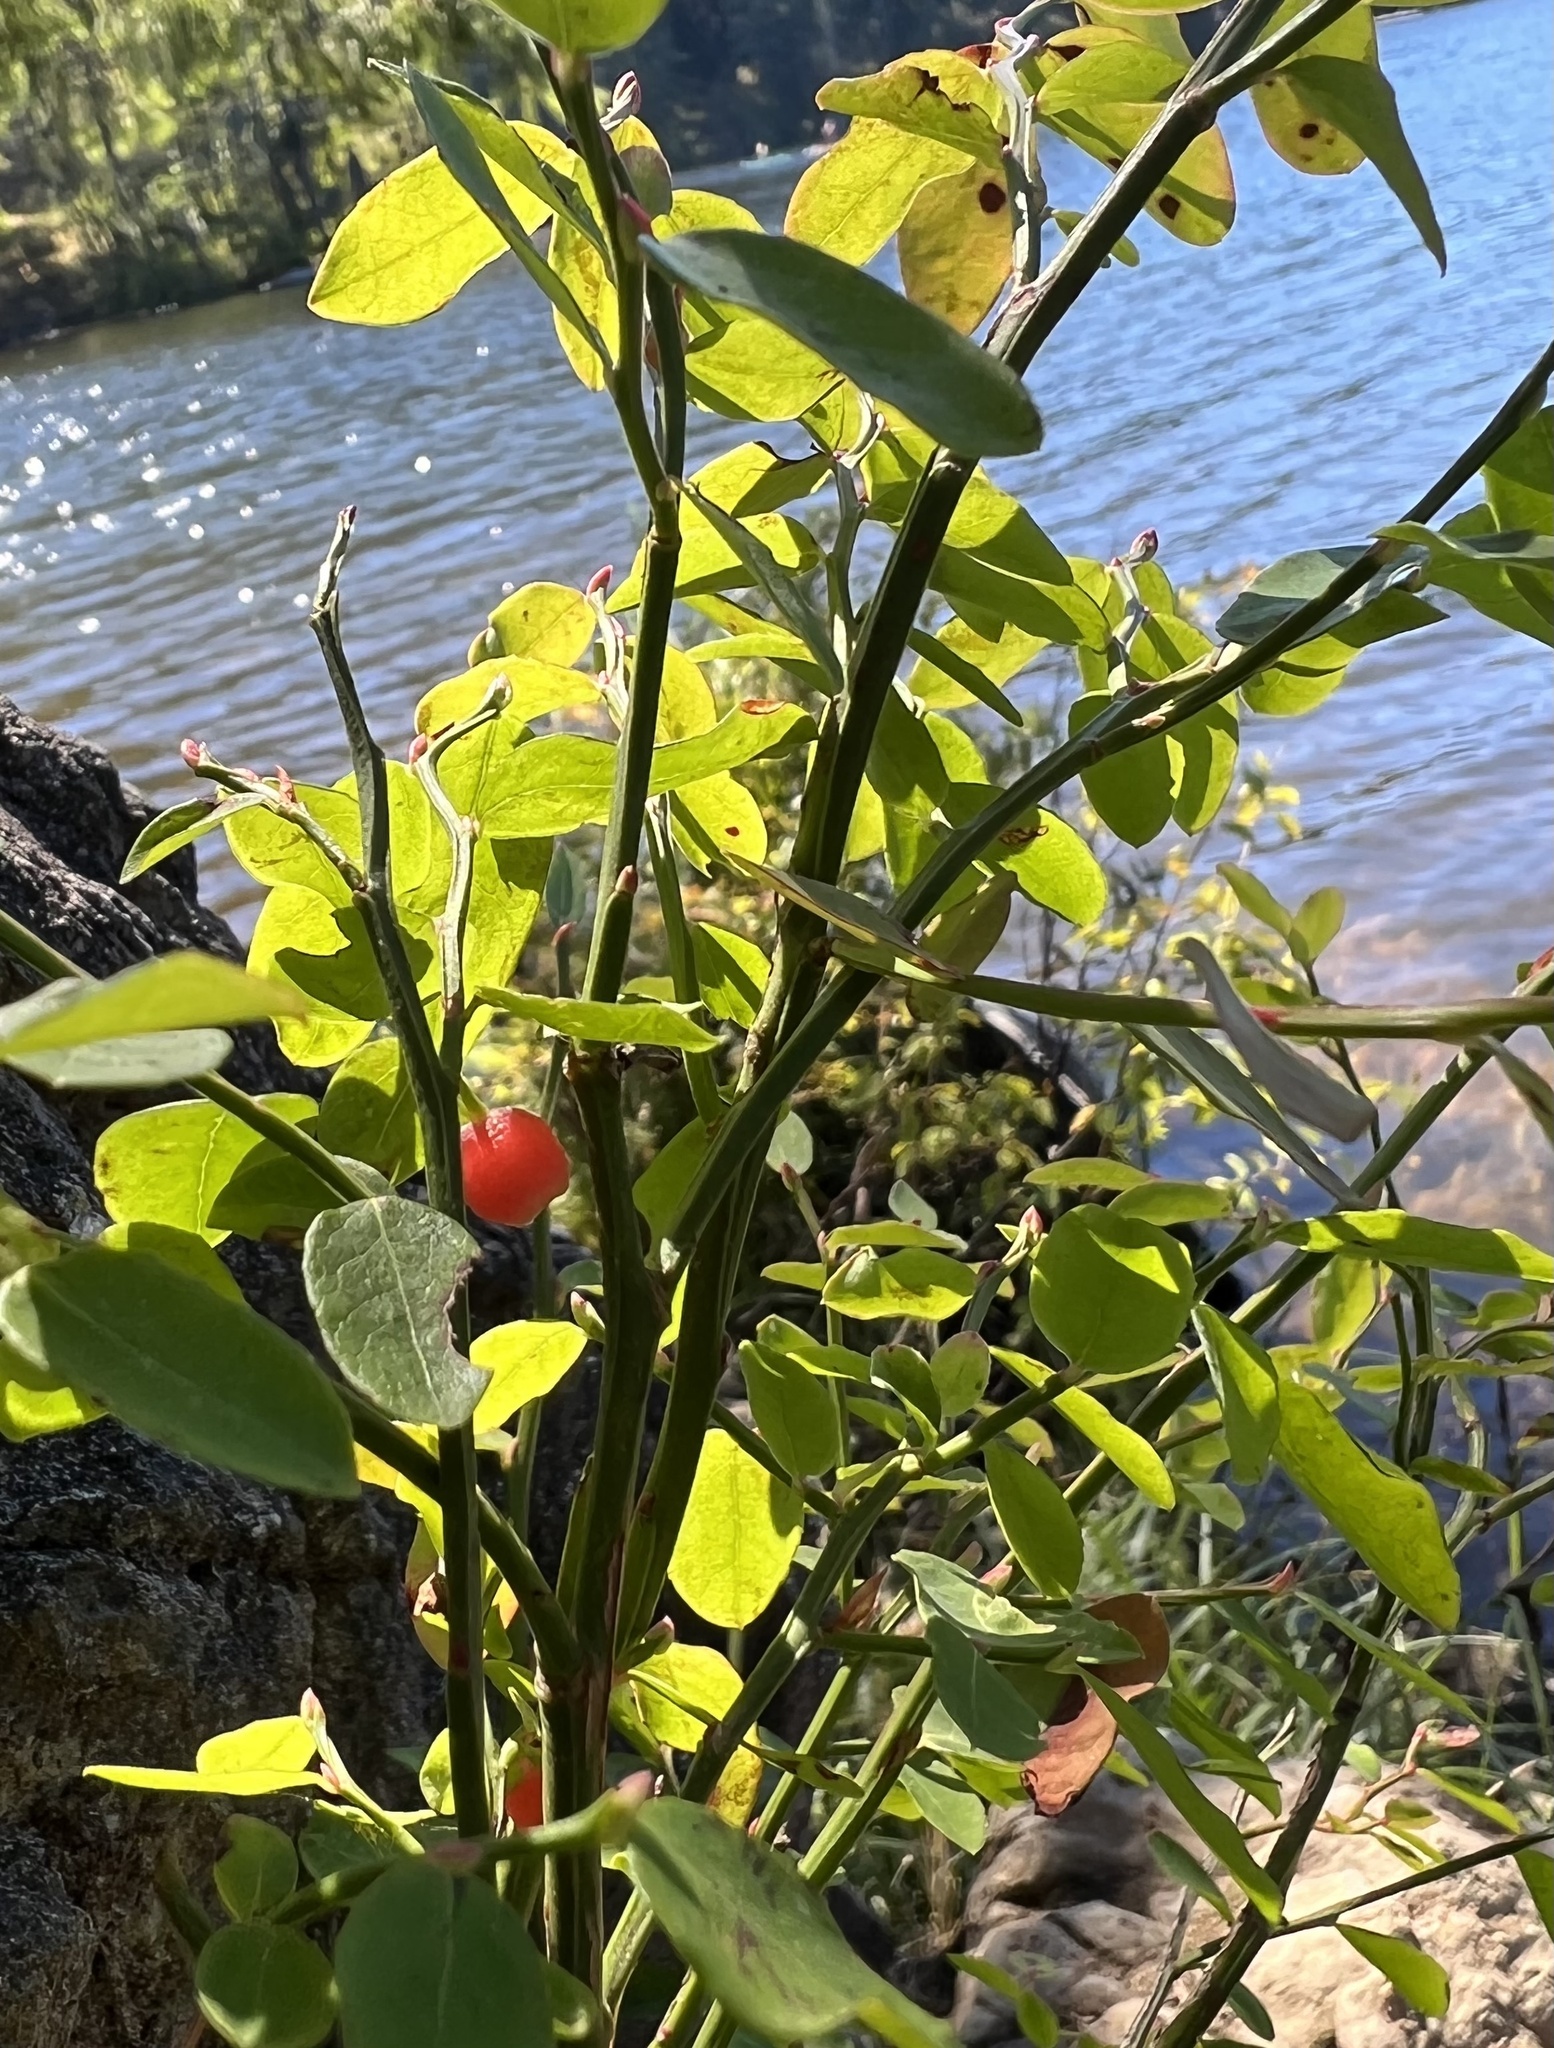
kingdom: Plantae
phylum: Tracheophyta
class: Magnoliopsida
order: Ericales
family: Ericaceae
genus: Vaccinium
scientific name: Vaccinium parvifolium
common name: Red-huckleberry
